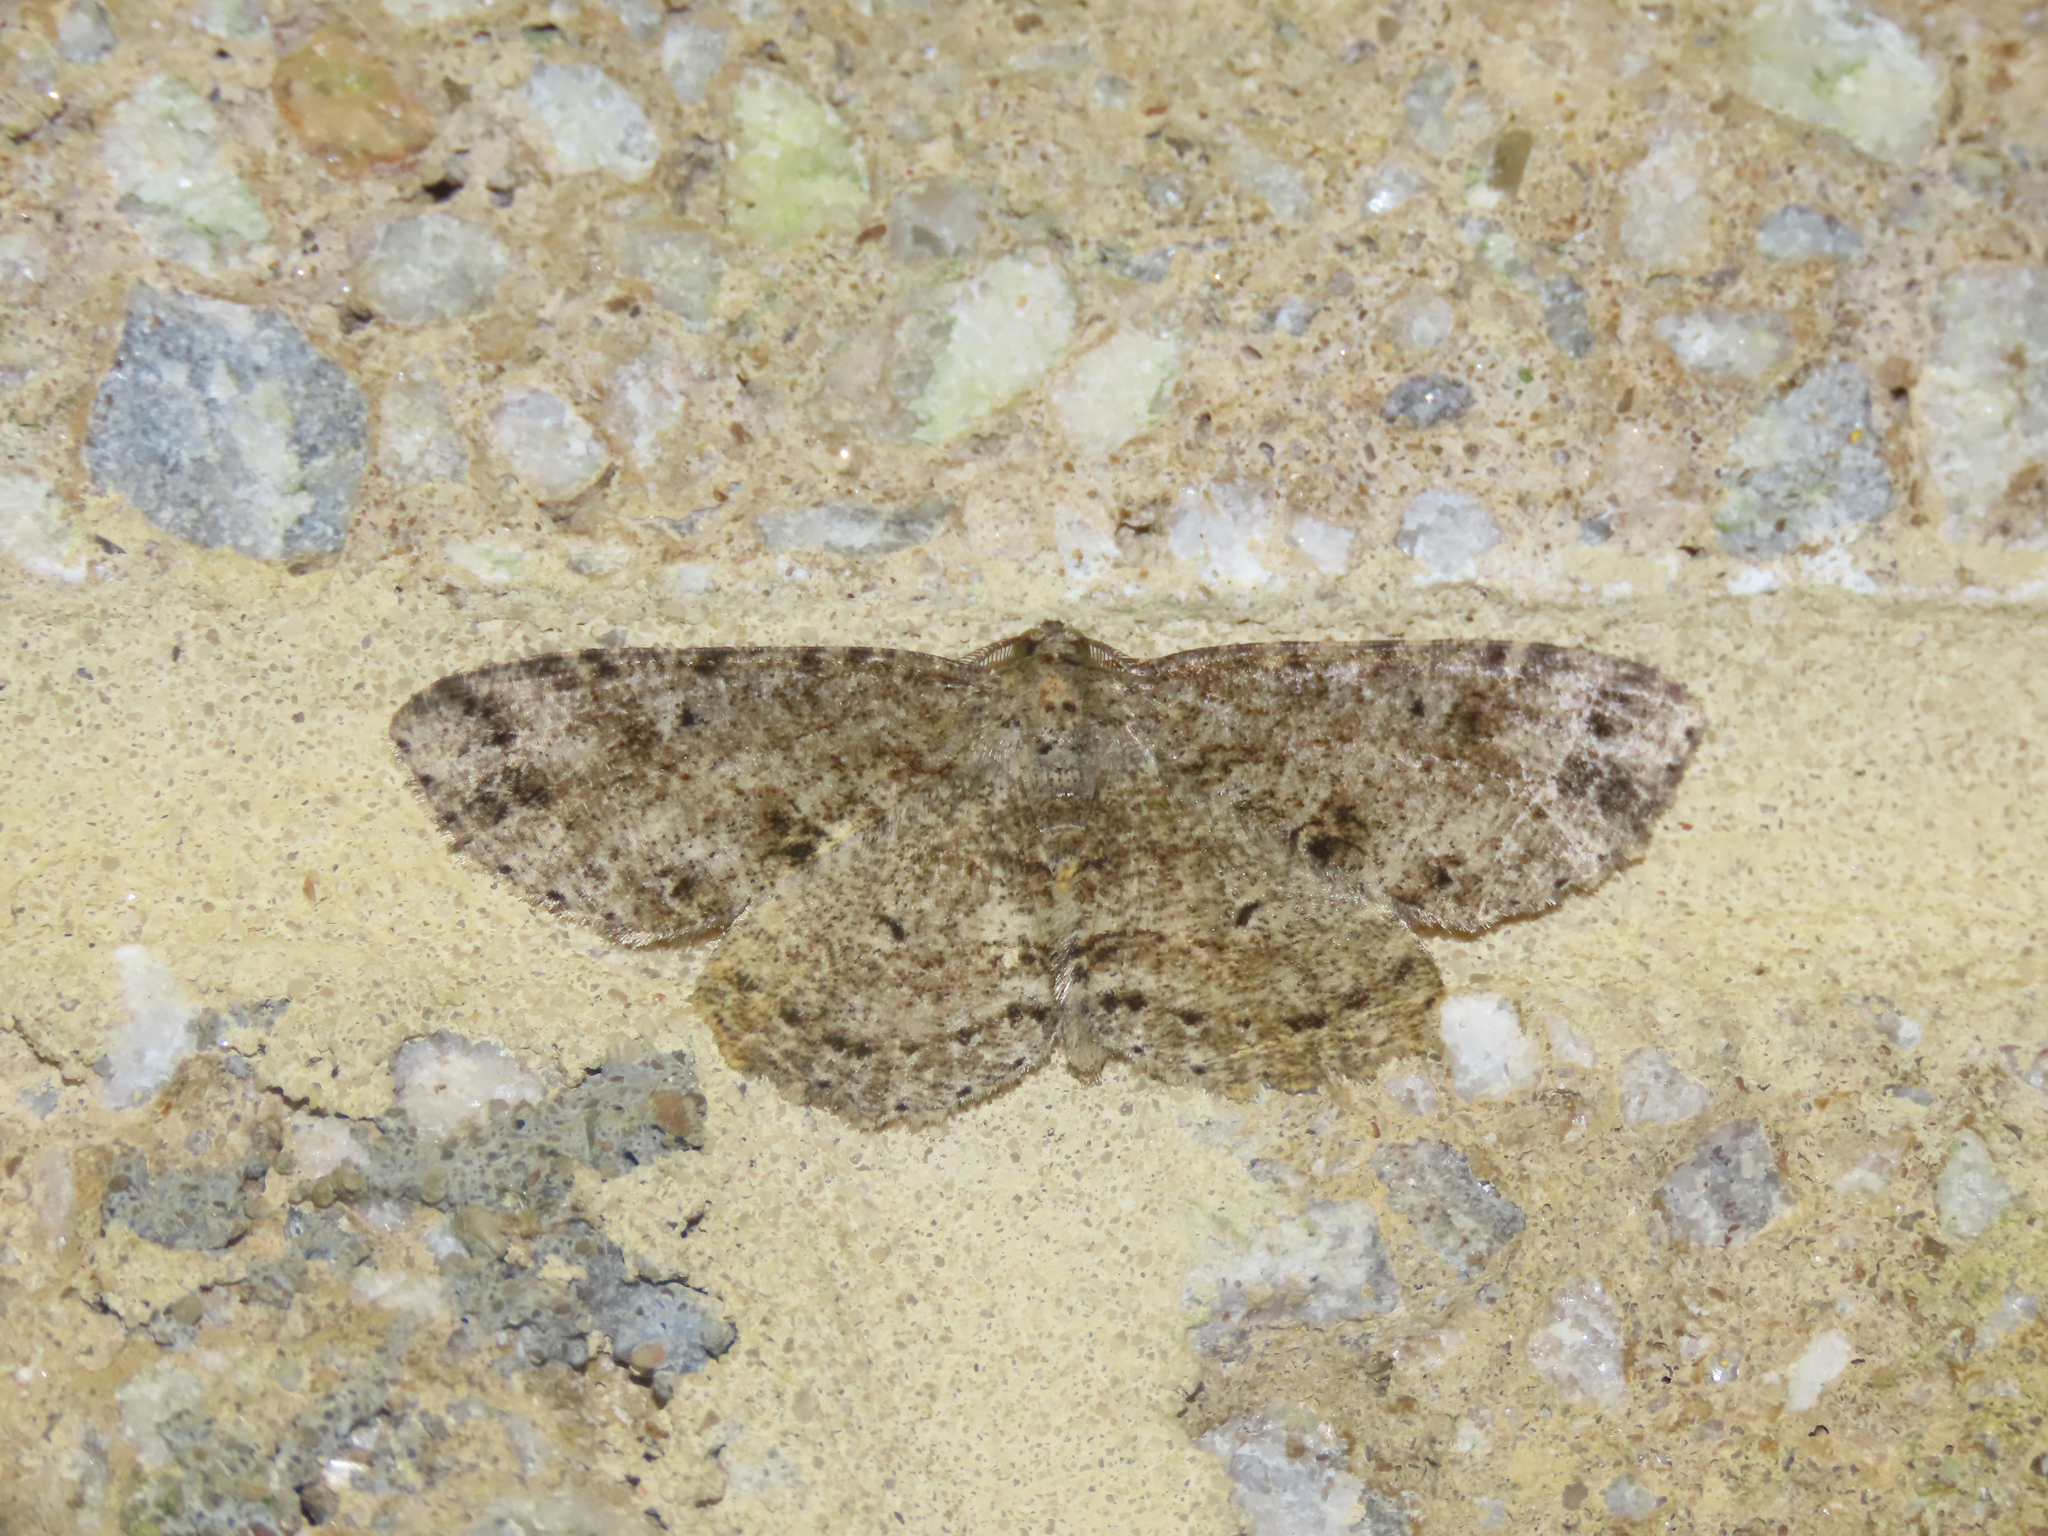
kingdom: Animalia
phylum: Arthropoda
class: Insecta
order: Lepidoptera
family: Geometridae
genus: Melanolophia
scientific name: Melanolophia canadaria
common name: Canadian melanolophia
